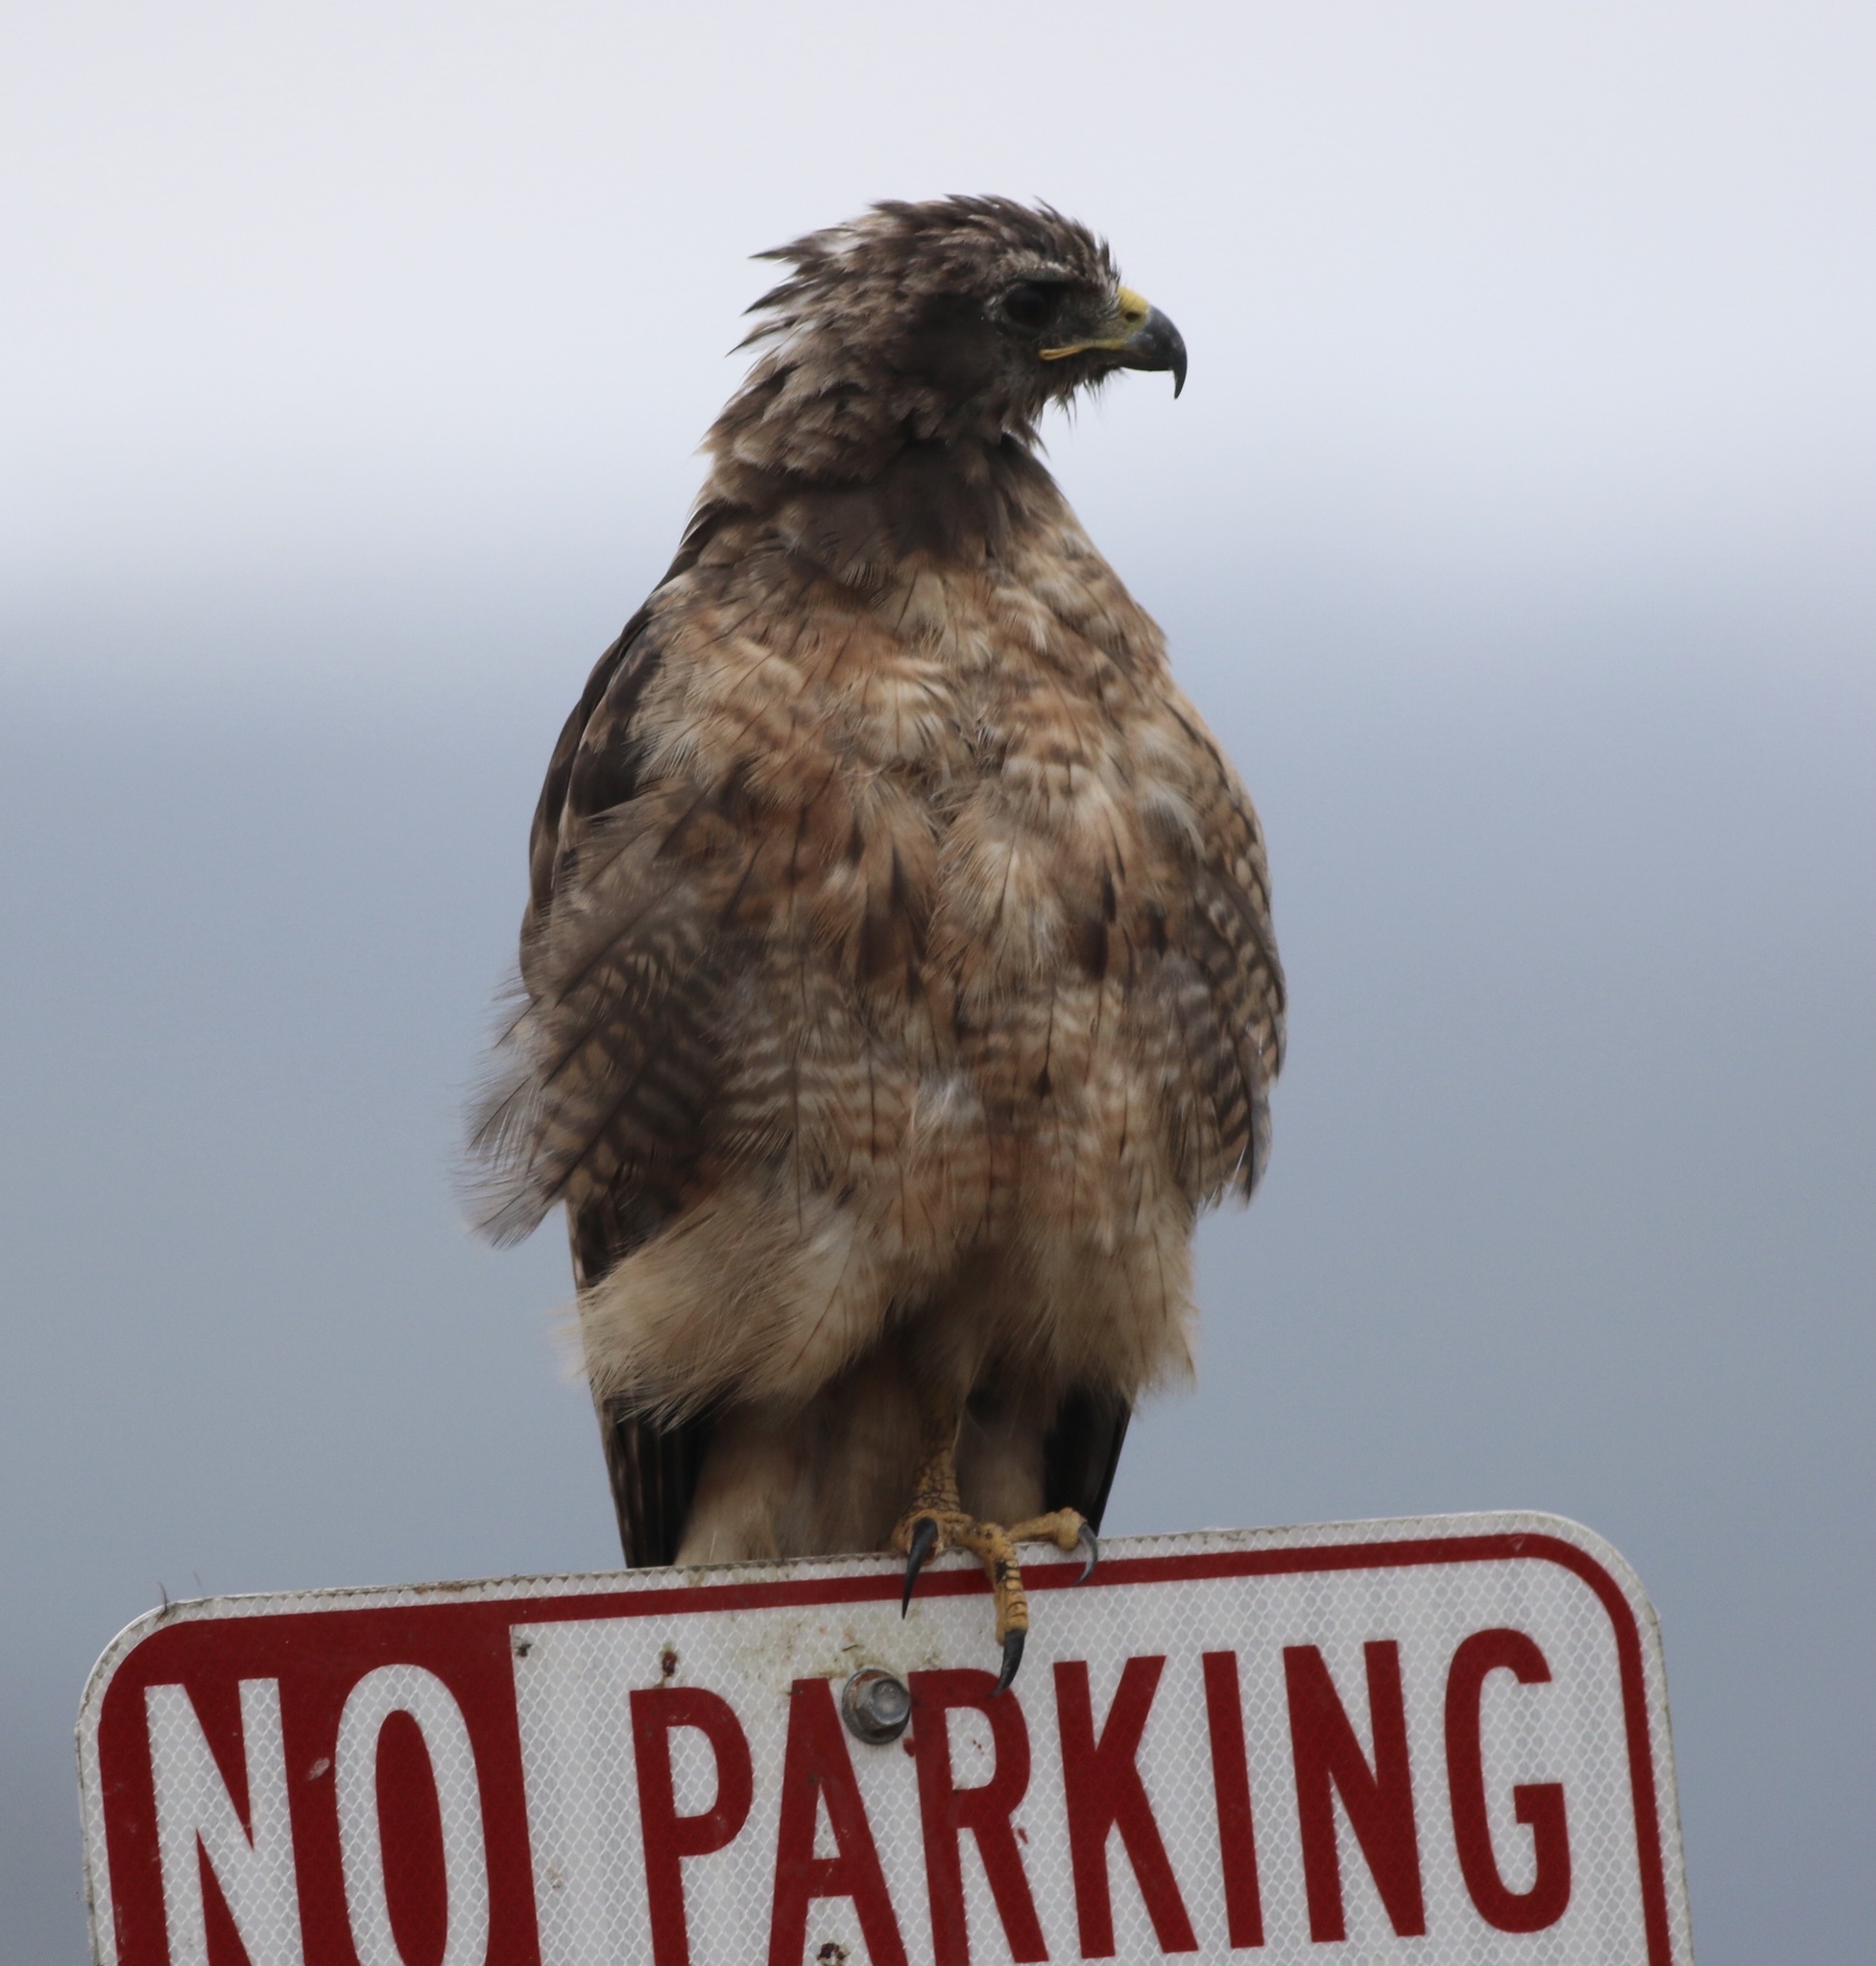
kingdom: Animalia
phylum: Chordata
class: Aves
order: Accipitriformes
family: Accipitridae
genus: Buteo
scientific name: Buteo jamaicensis
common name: Red-tailed hawk
